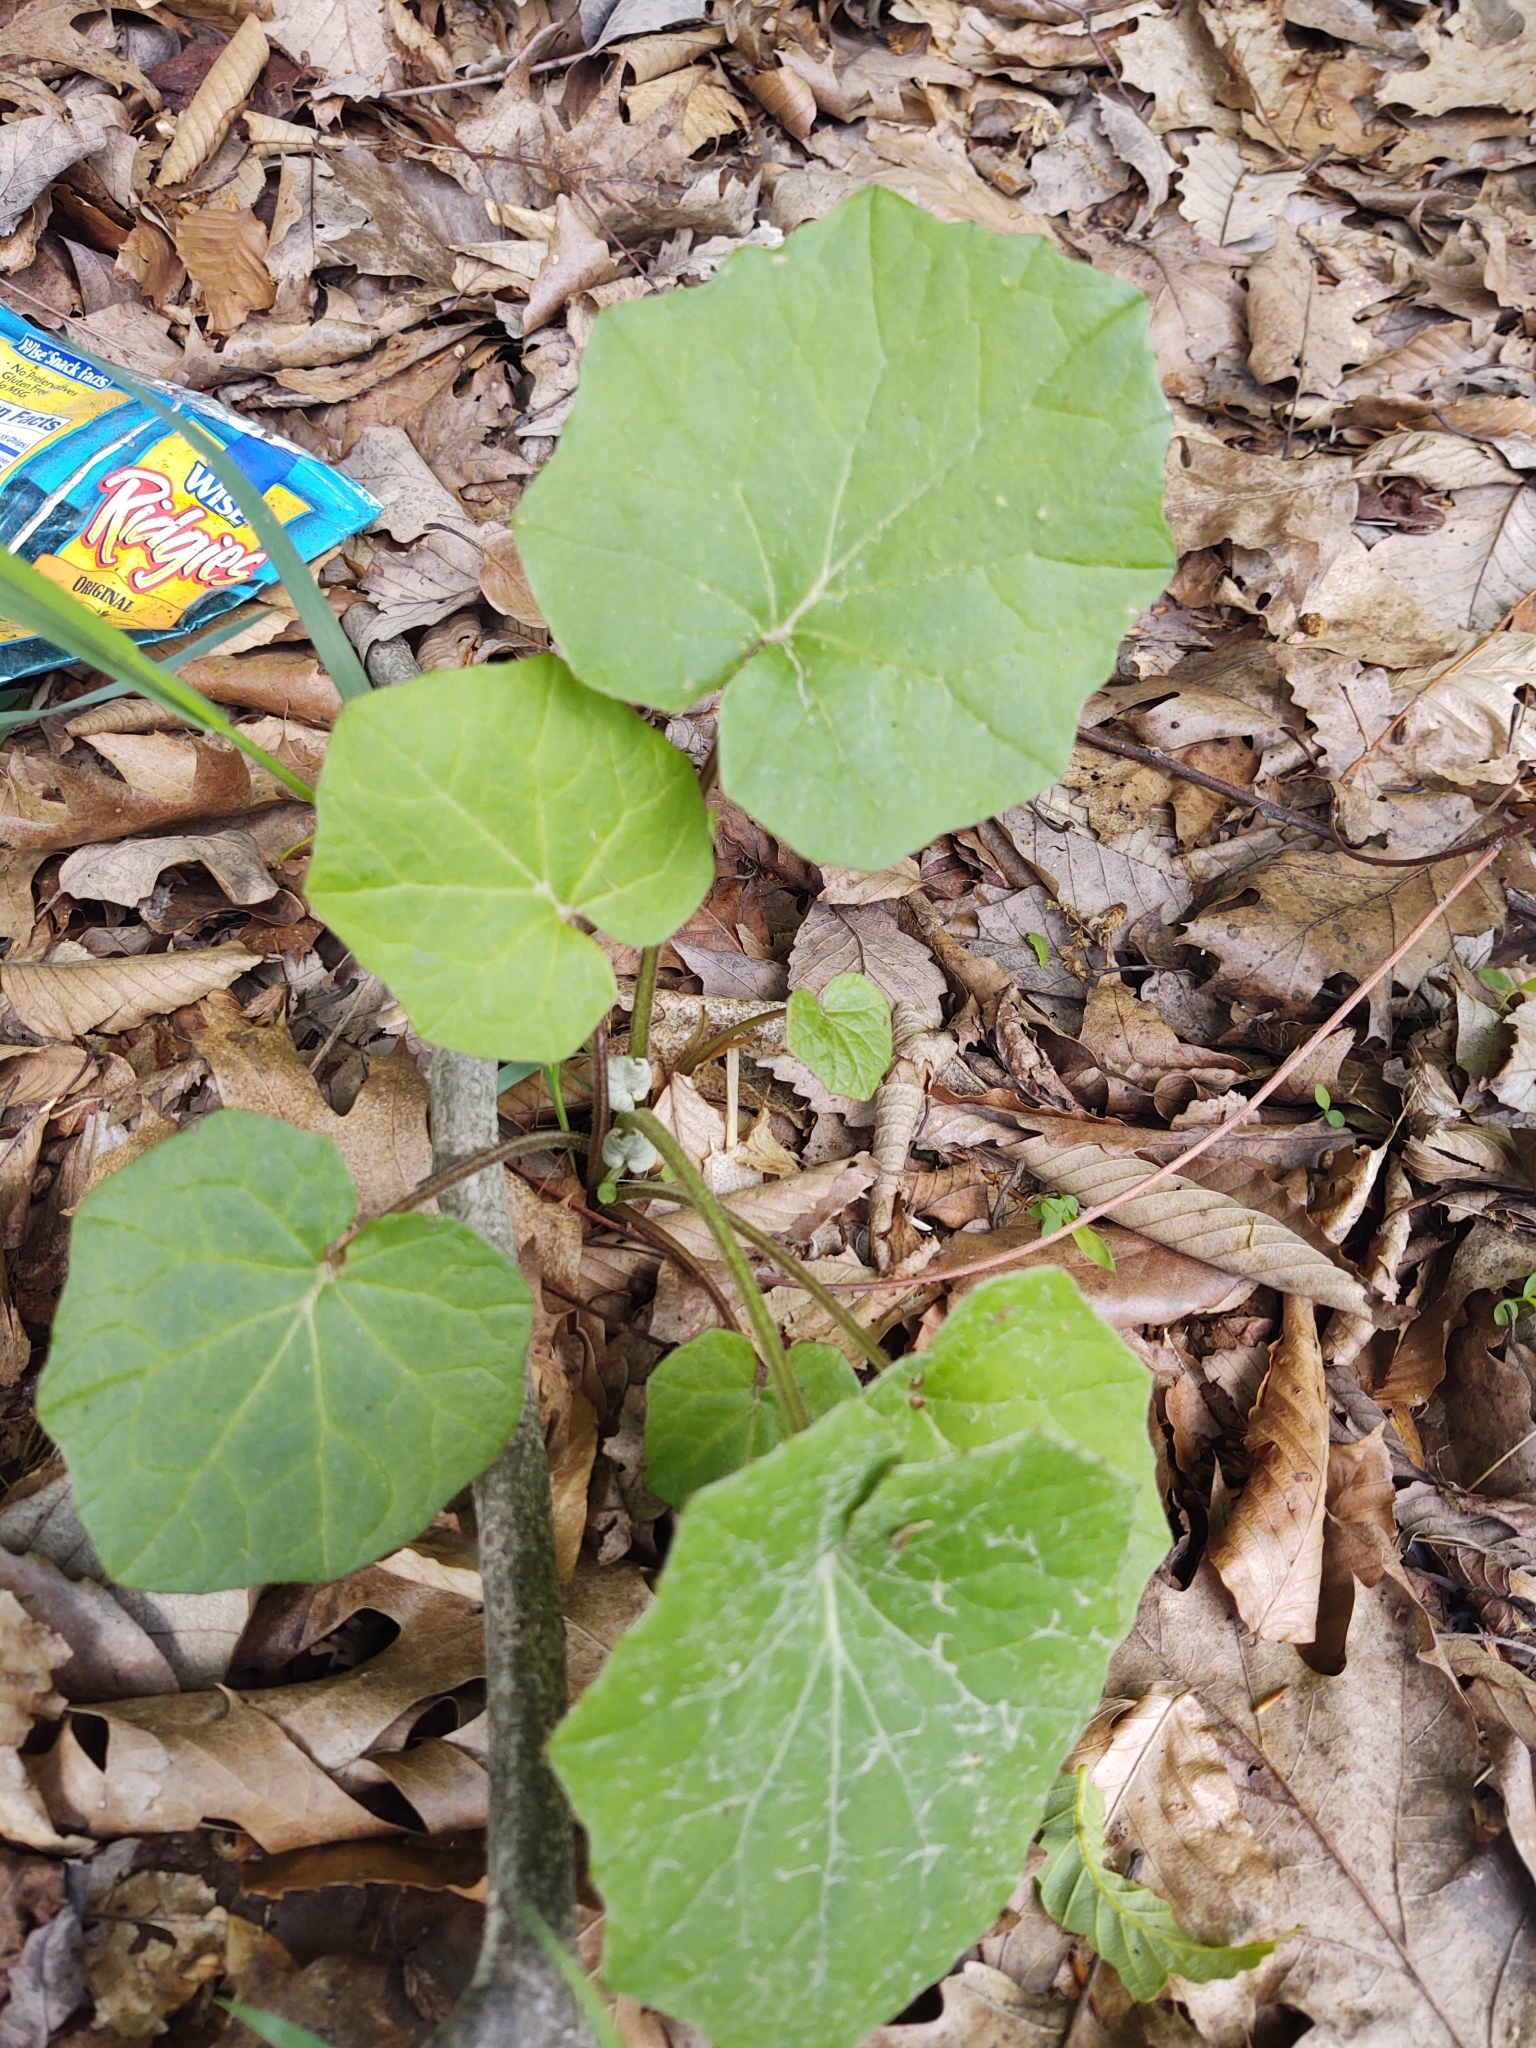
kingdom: Plantae
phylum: Tracheophyta
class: Magnoliopsida
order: Asterales
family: Asteraceae
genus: Tussilago
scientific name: Tussilago farfara
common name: Coltsfoot
